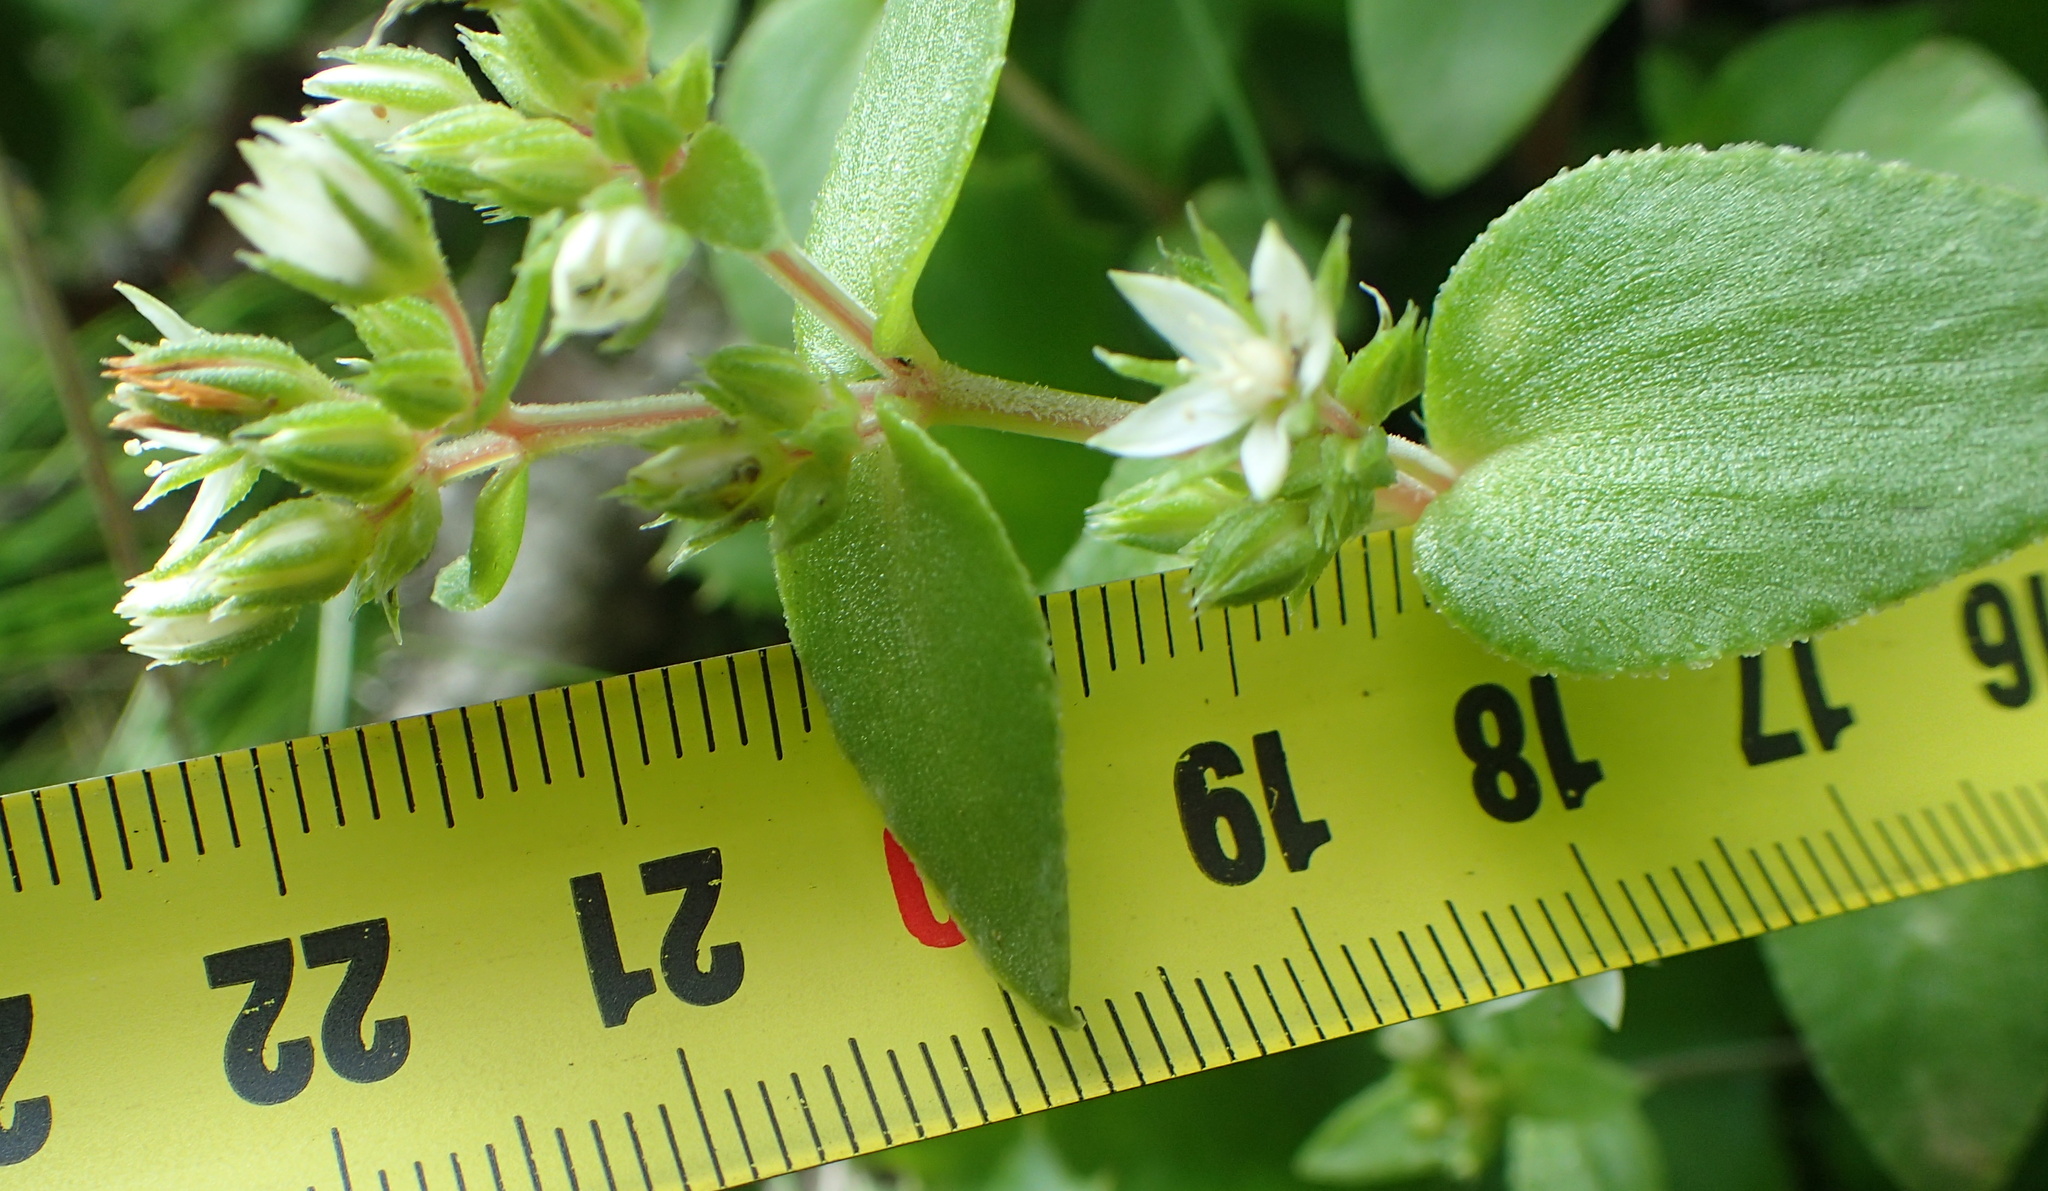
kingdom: Plantae
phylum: Tracheophyta
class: Magnoliopsida
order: Saxifragales
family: Crassulaceae
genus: Crassula
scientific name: Crassula pellucida
